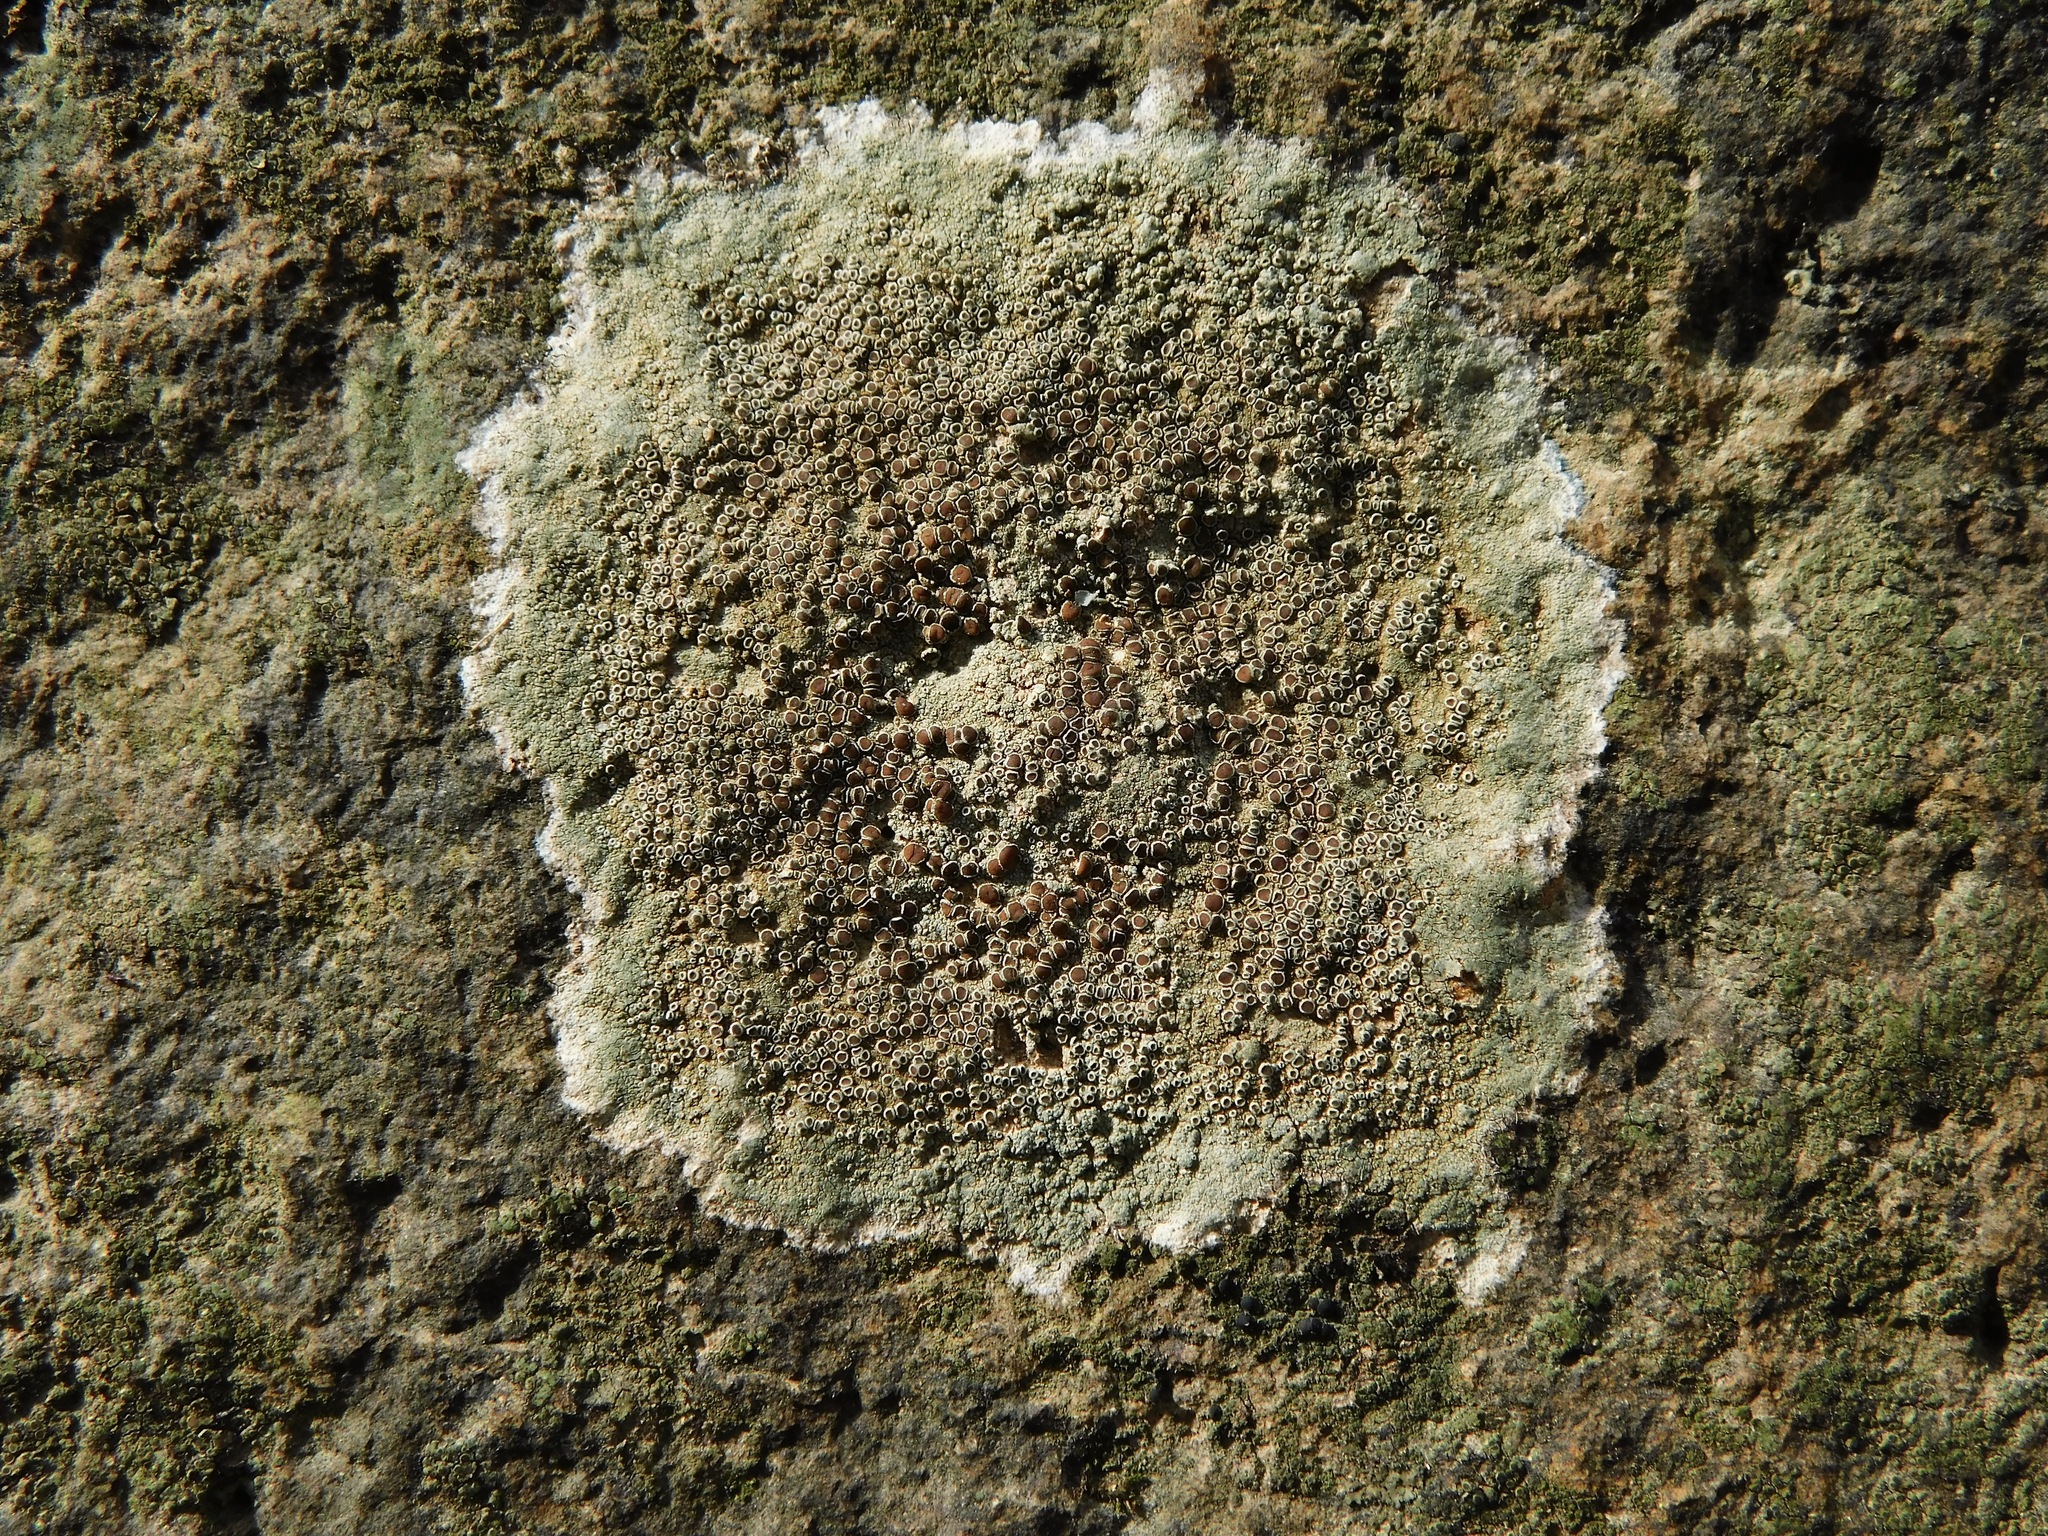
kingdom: Fungi
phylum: Ascomycota
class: Lecanoromycetes
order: Lecanorales
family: Lecanoraceae
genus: Lecanora
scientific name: Lecanora subimmergens
